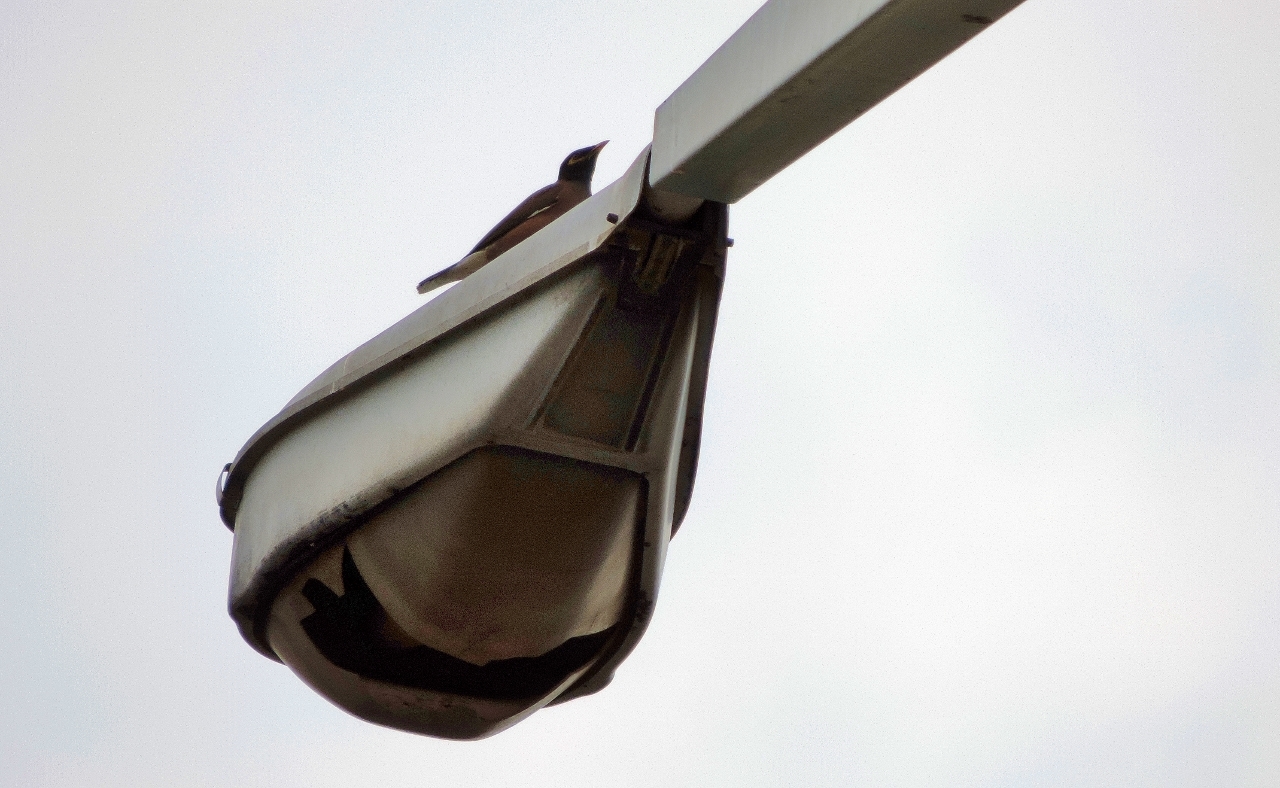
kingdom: Animalia
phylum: Chordata
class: Aves
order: Passeriformes
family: Sturnidae
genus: Acridotheres
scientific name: Acridotheres tristis
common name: Common myna
